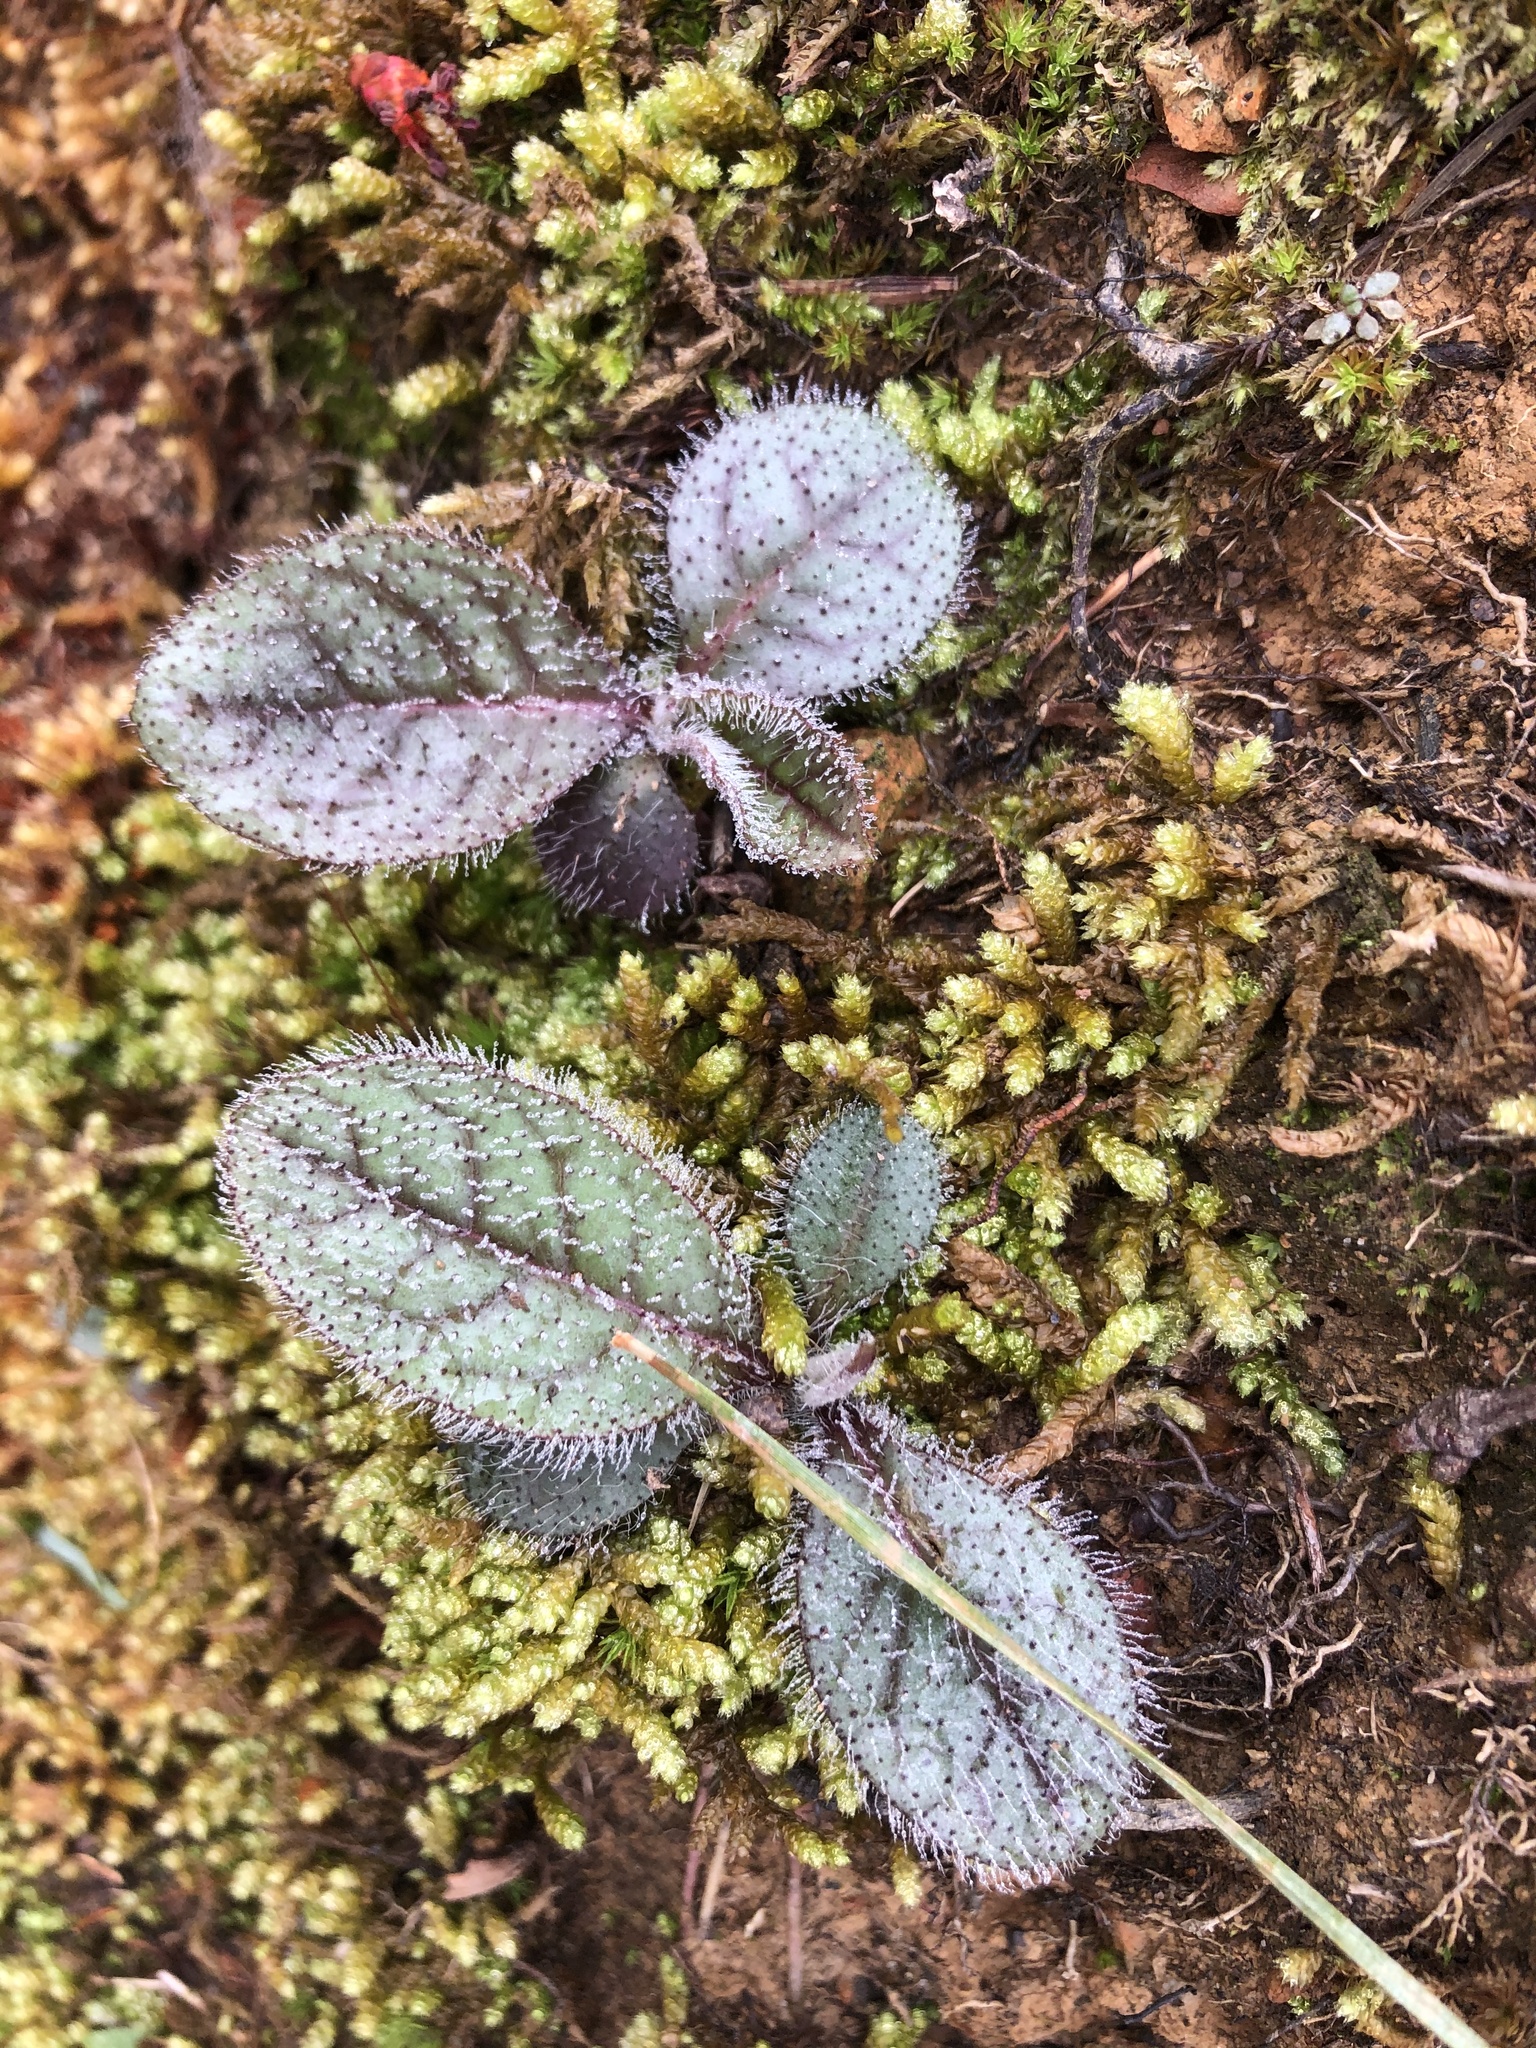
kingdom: Plantae
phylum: Tracheophyta
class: Magnoliopsida
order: Asterales
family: Asteraceae
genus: Hieracium
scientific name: Hieracium venosum
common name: Rattlesnake hawkweed
